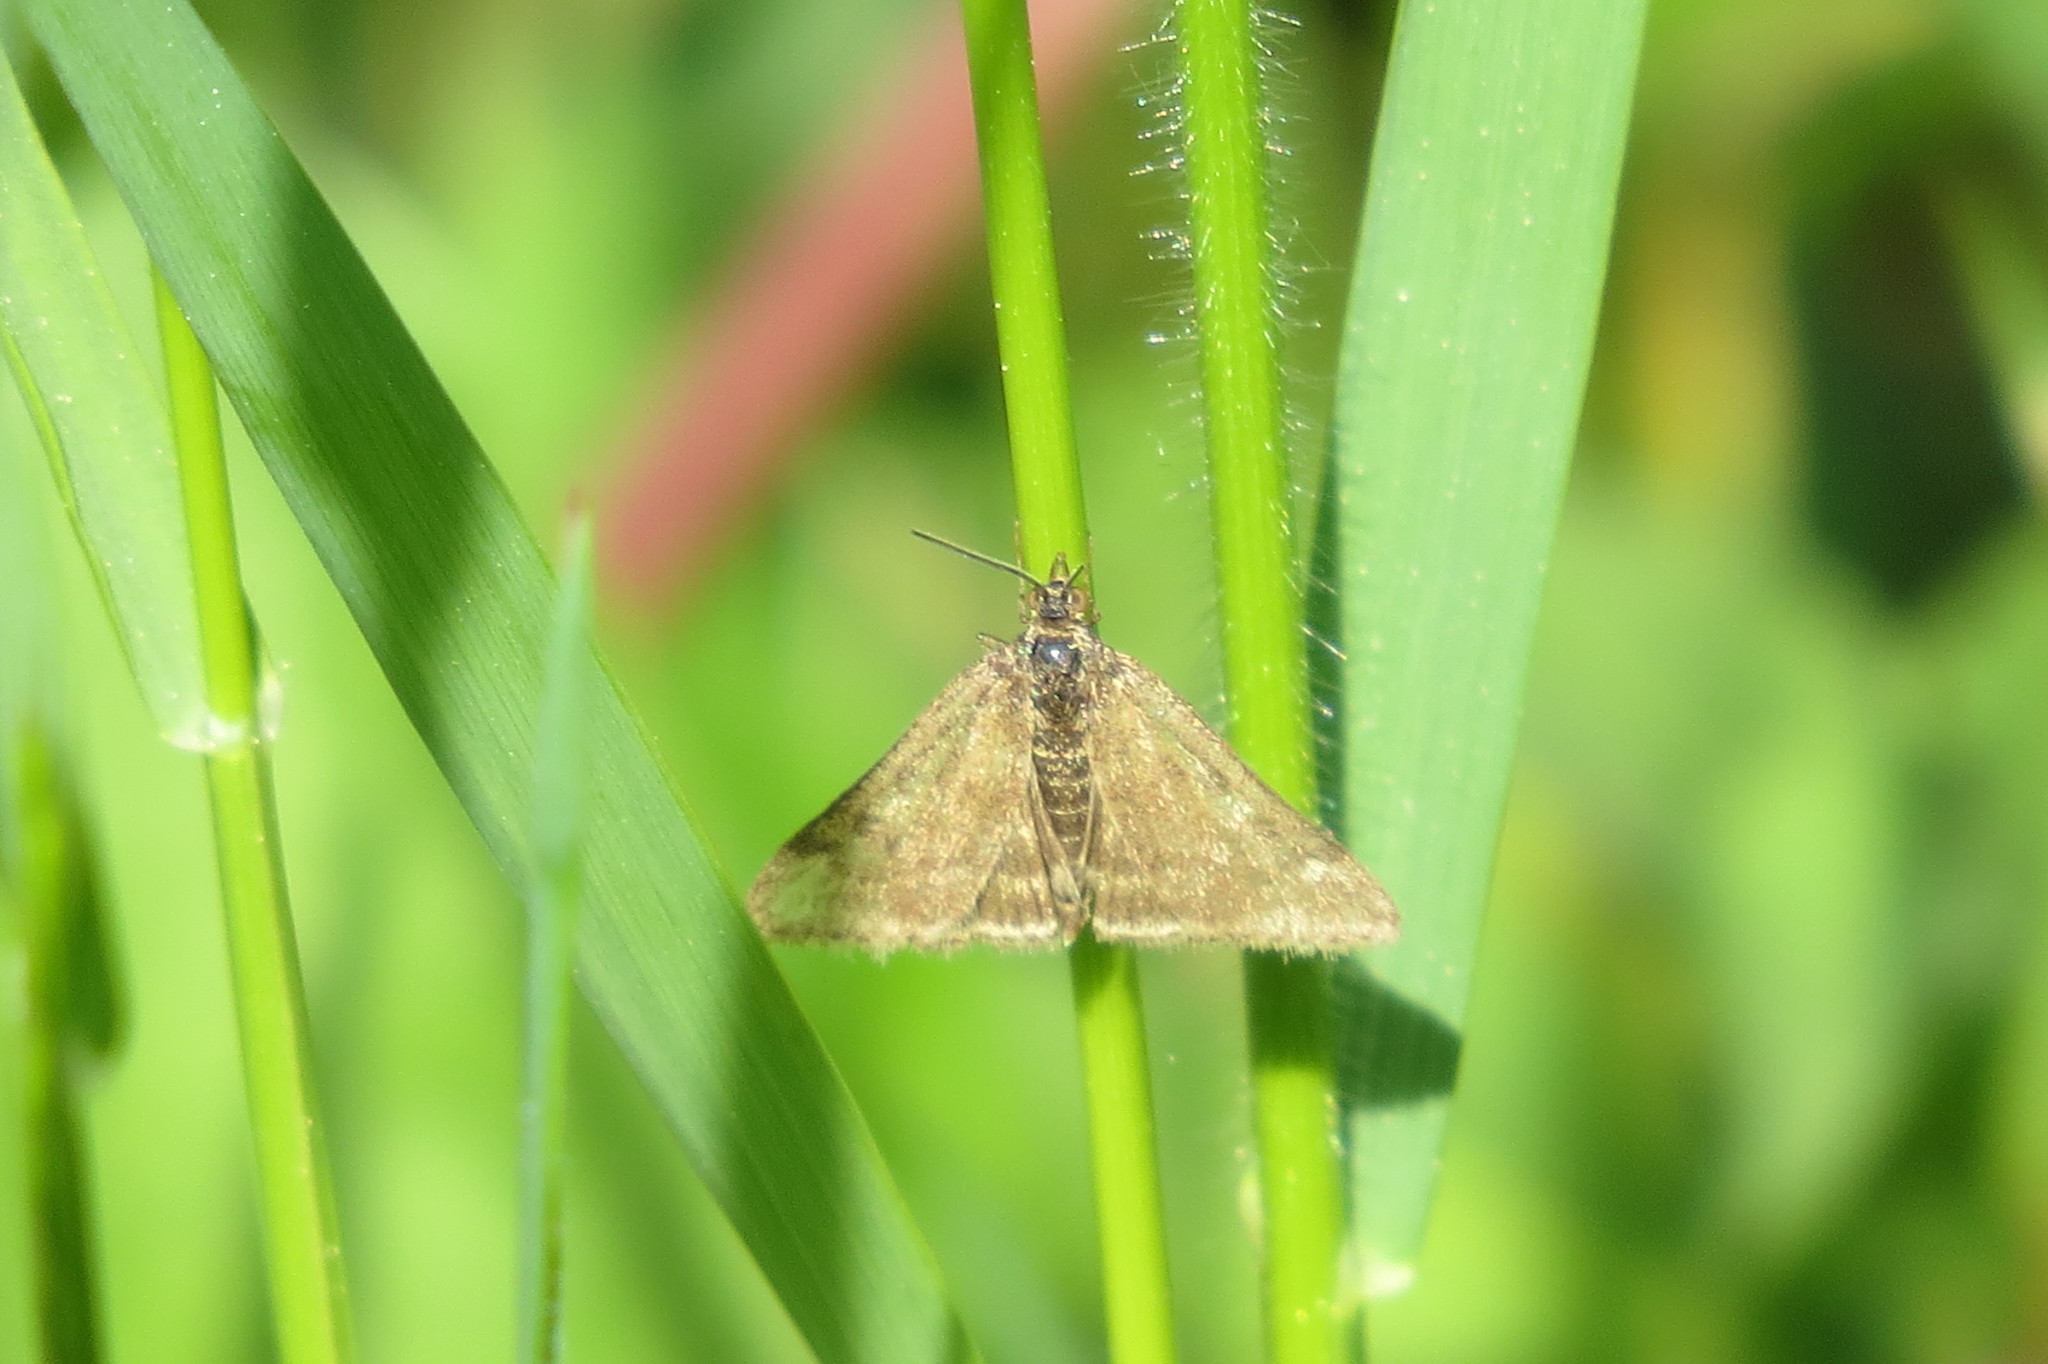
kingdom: Animalia
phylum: Arthropoda
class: Insecta
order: Lepidoptera
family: Crambidae
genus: Pyrausta
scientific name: Pyrausta despicata
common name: Straw-barred pearl
